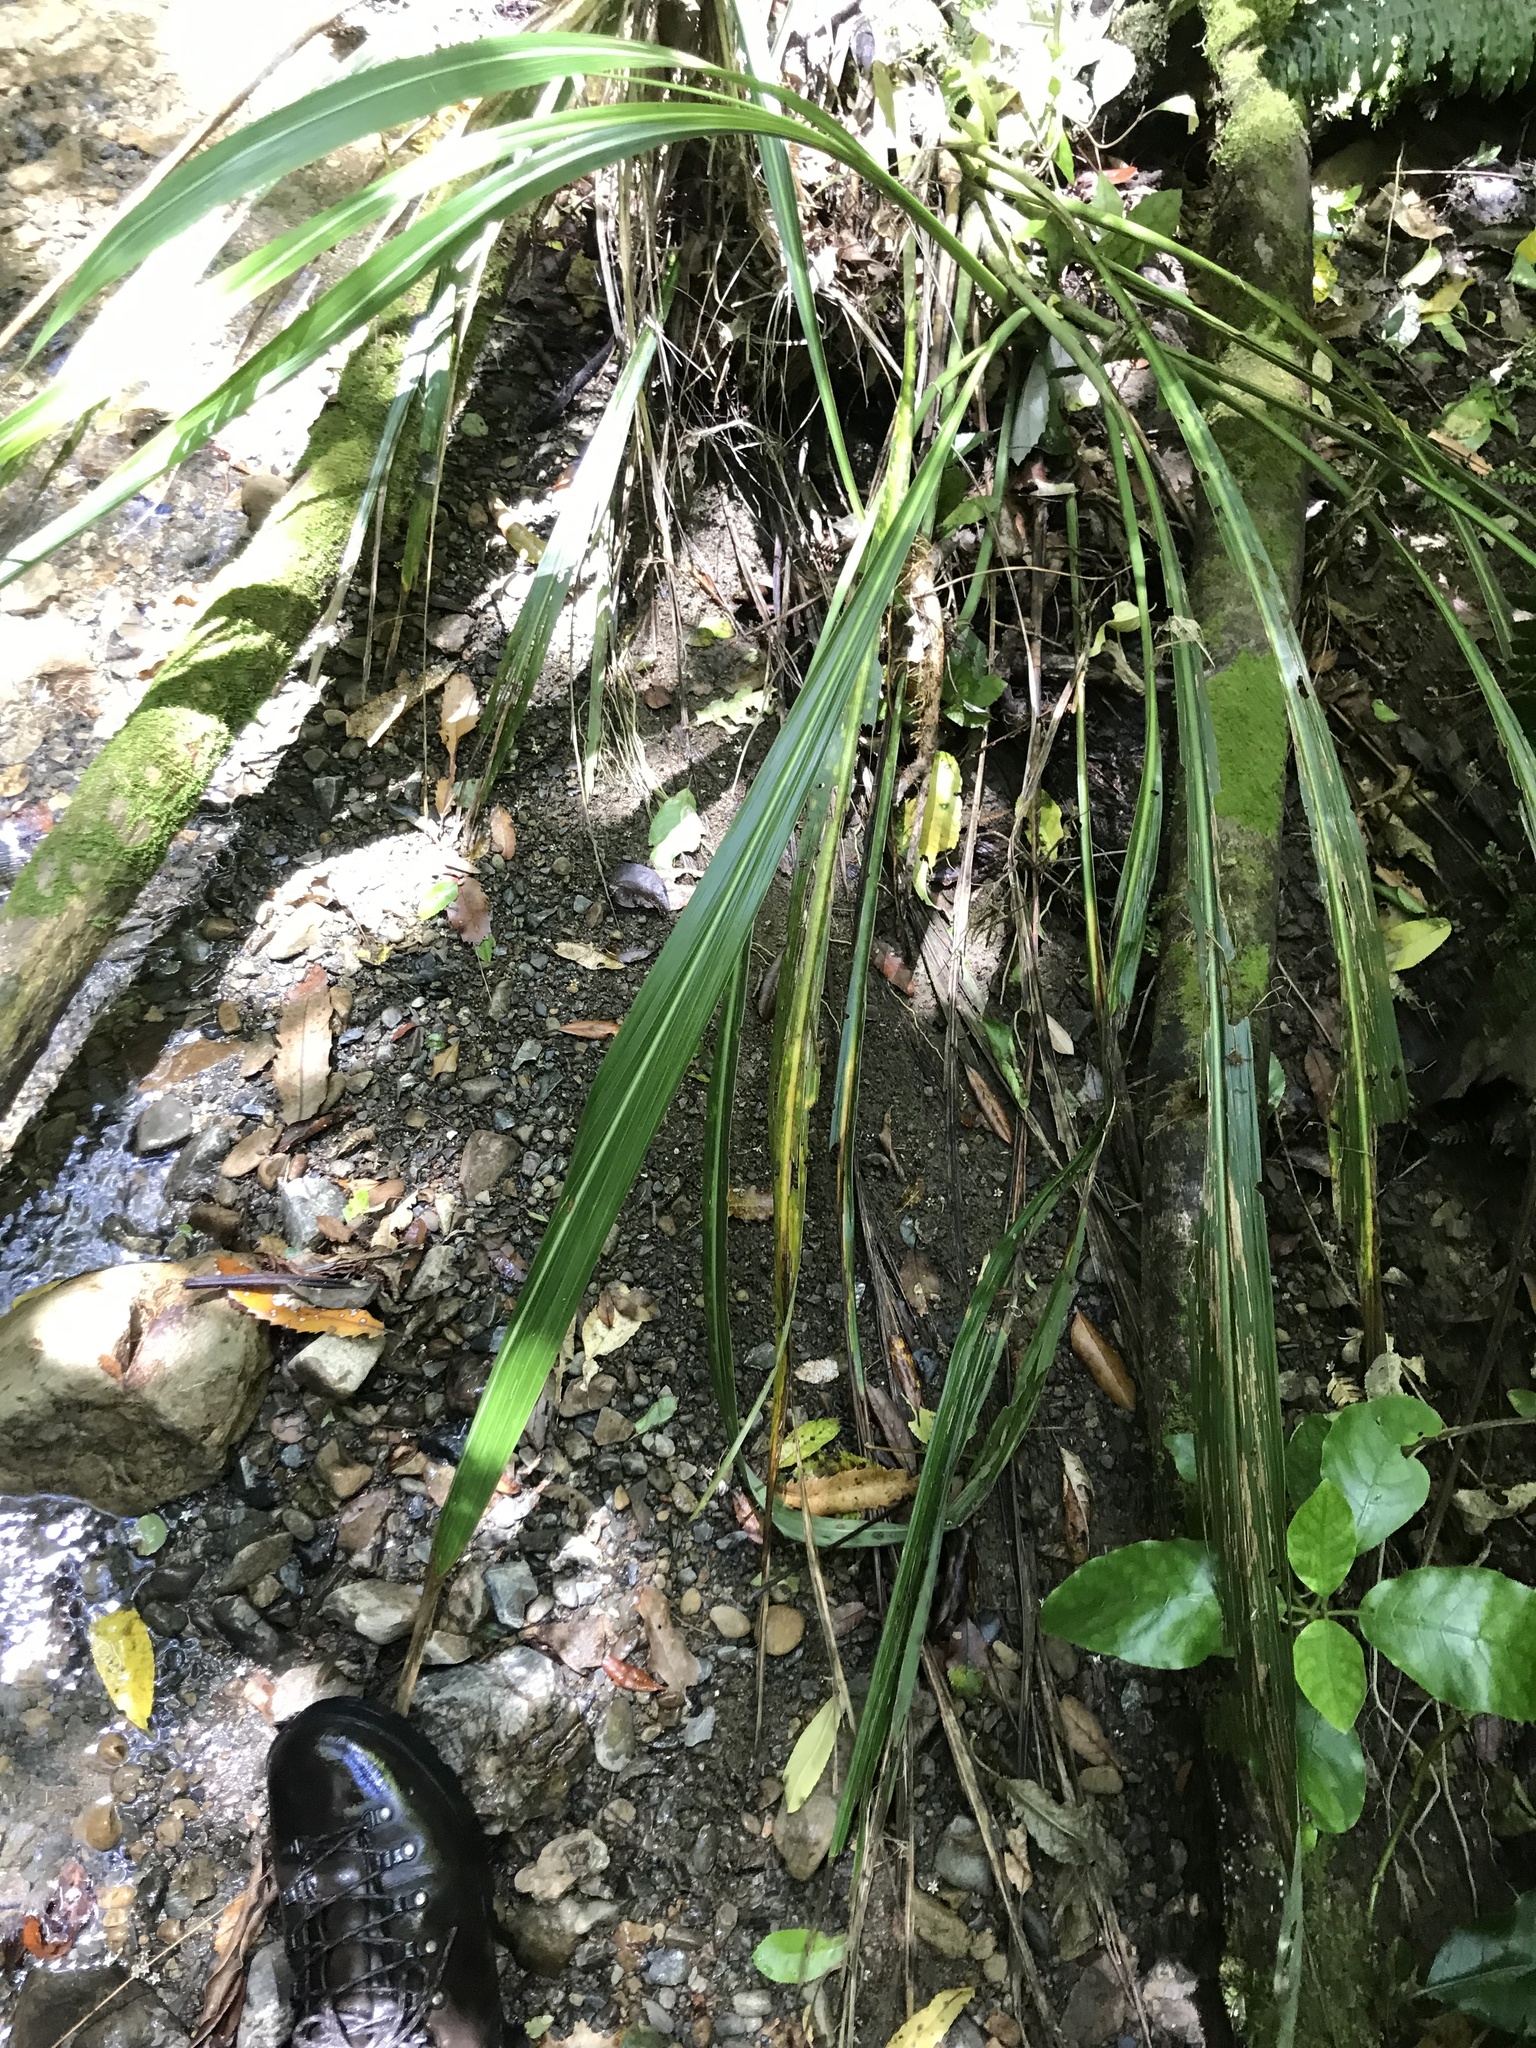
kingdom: Plantae
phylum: Tracheophyta
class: Liliopsida
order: Asparagales
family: Asparagaceae
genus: Cordyline
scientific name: Cordyline banksii
